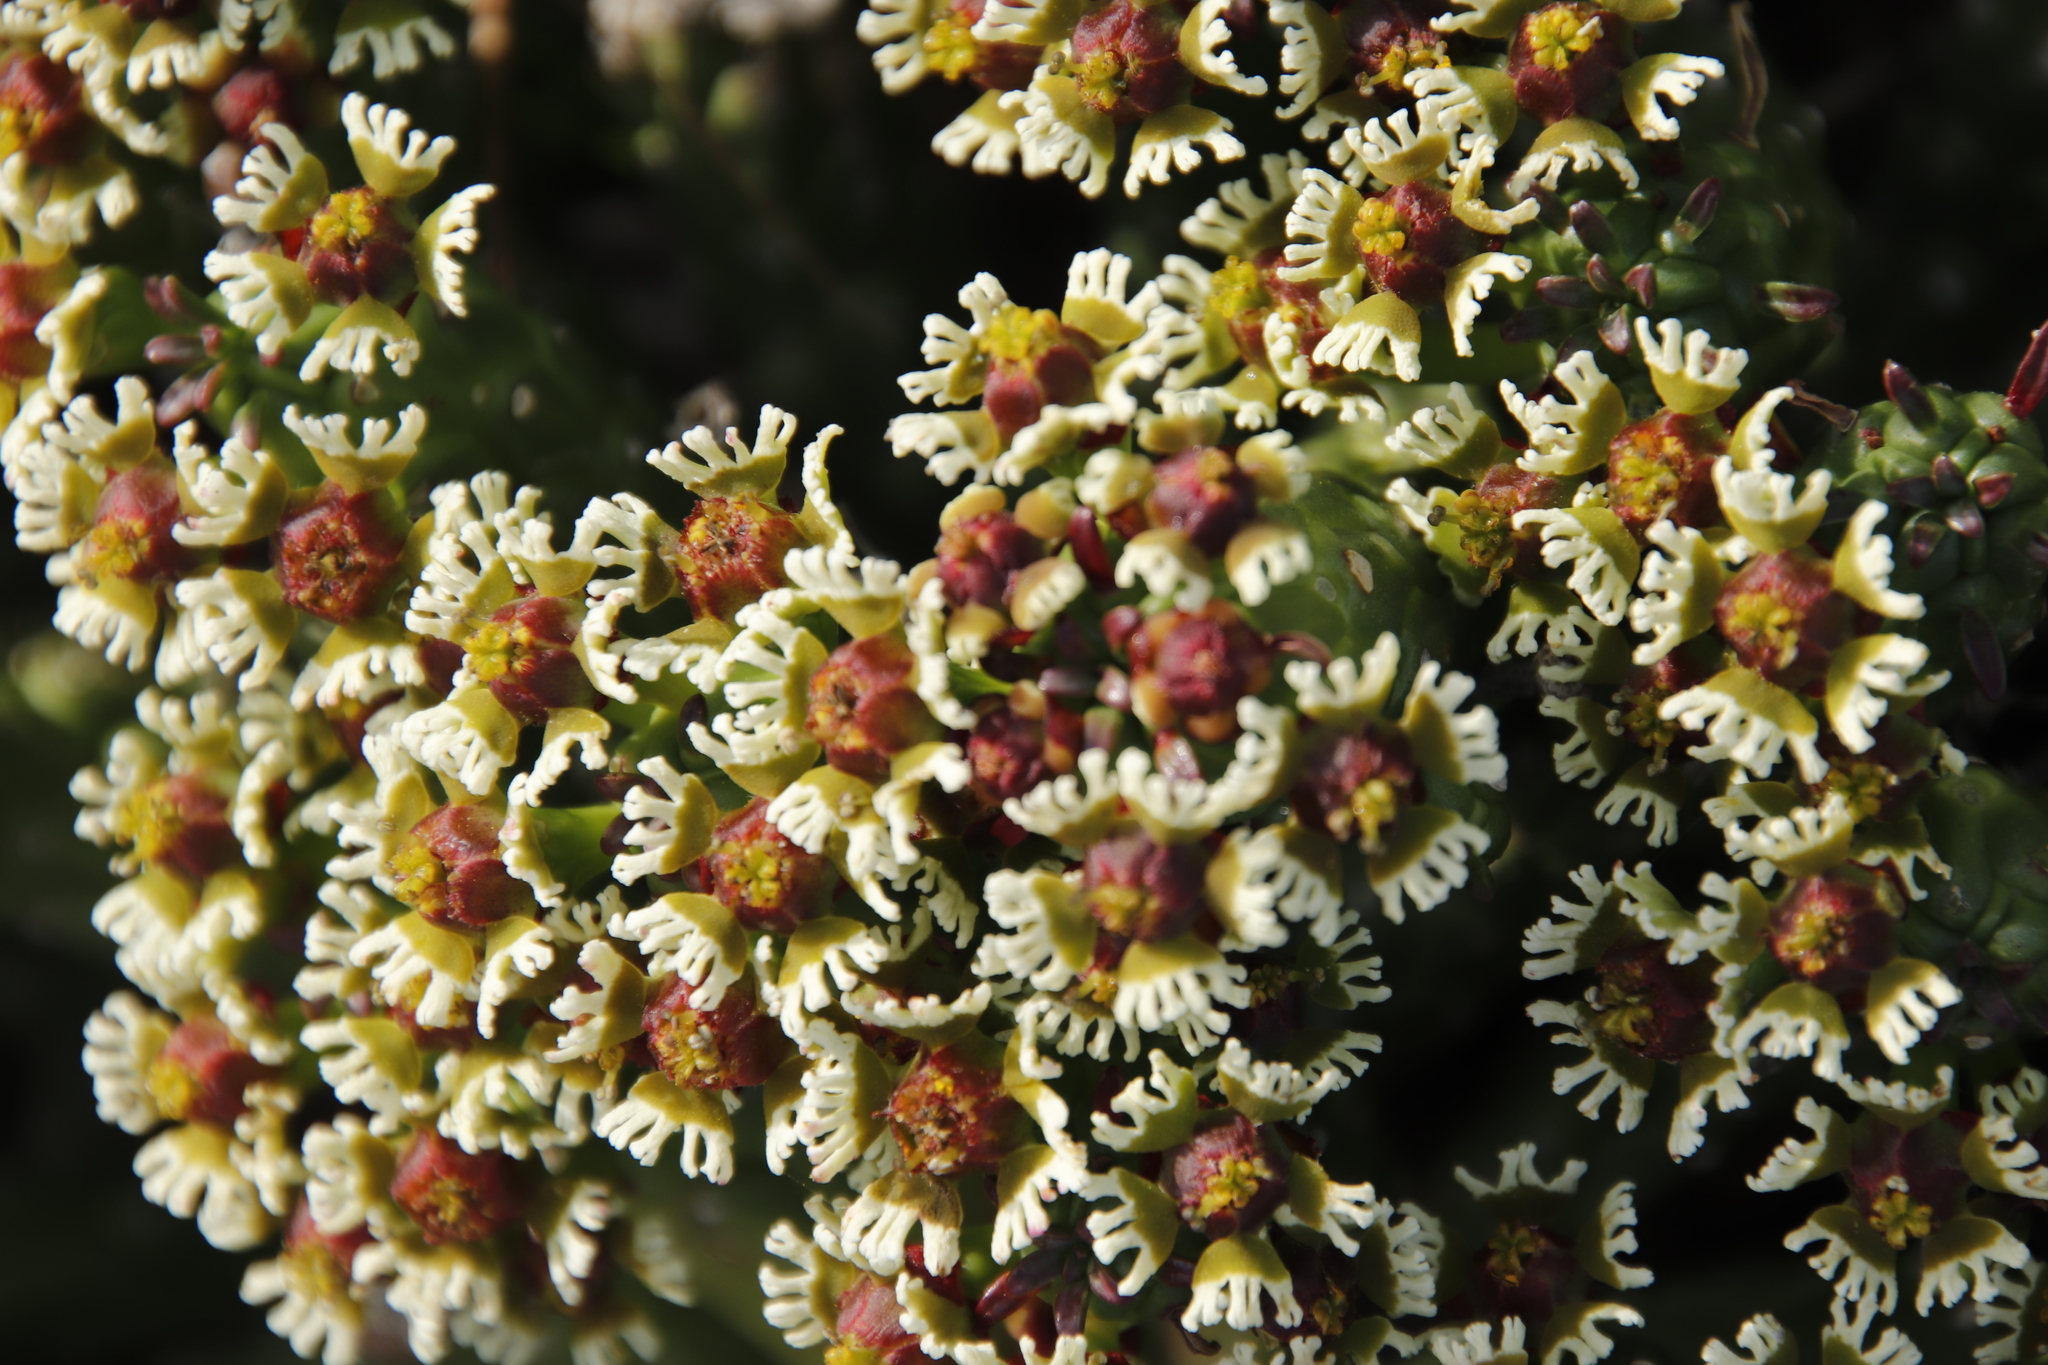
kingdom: Plantae
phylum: Tracheophyta
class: Magnoliopsida
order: Malpighiales
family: Euphorbiaceae
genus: Euphorbia
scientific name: Euphorbia caput-medusae
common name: Medusa's-head
